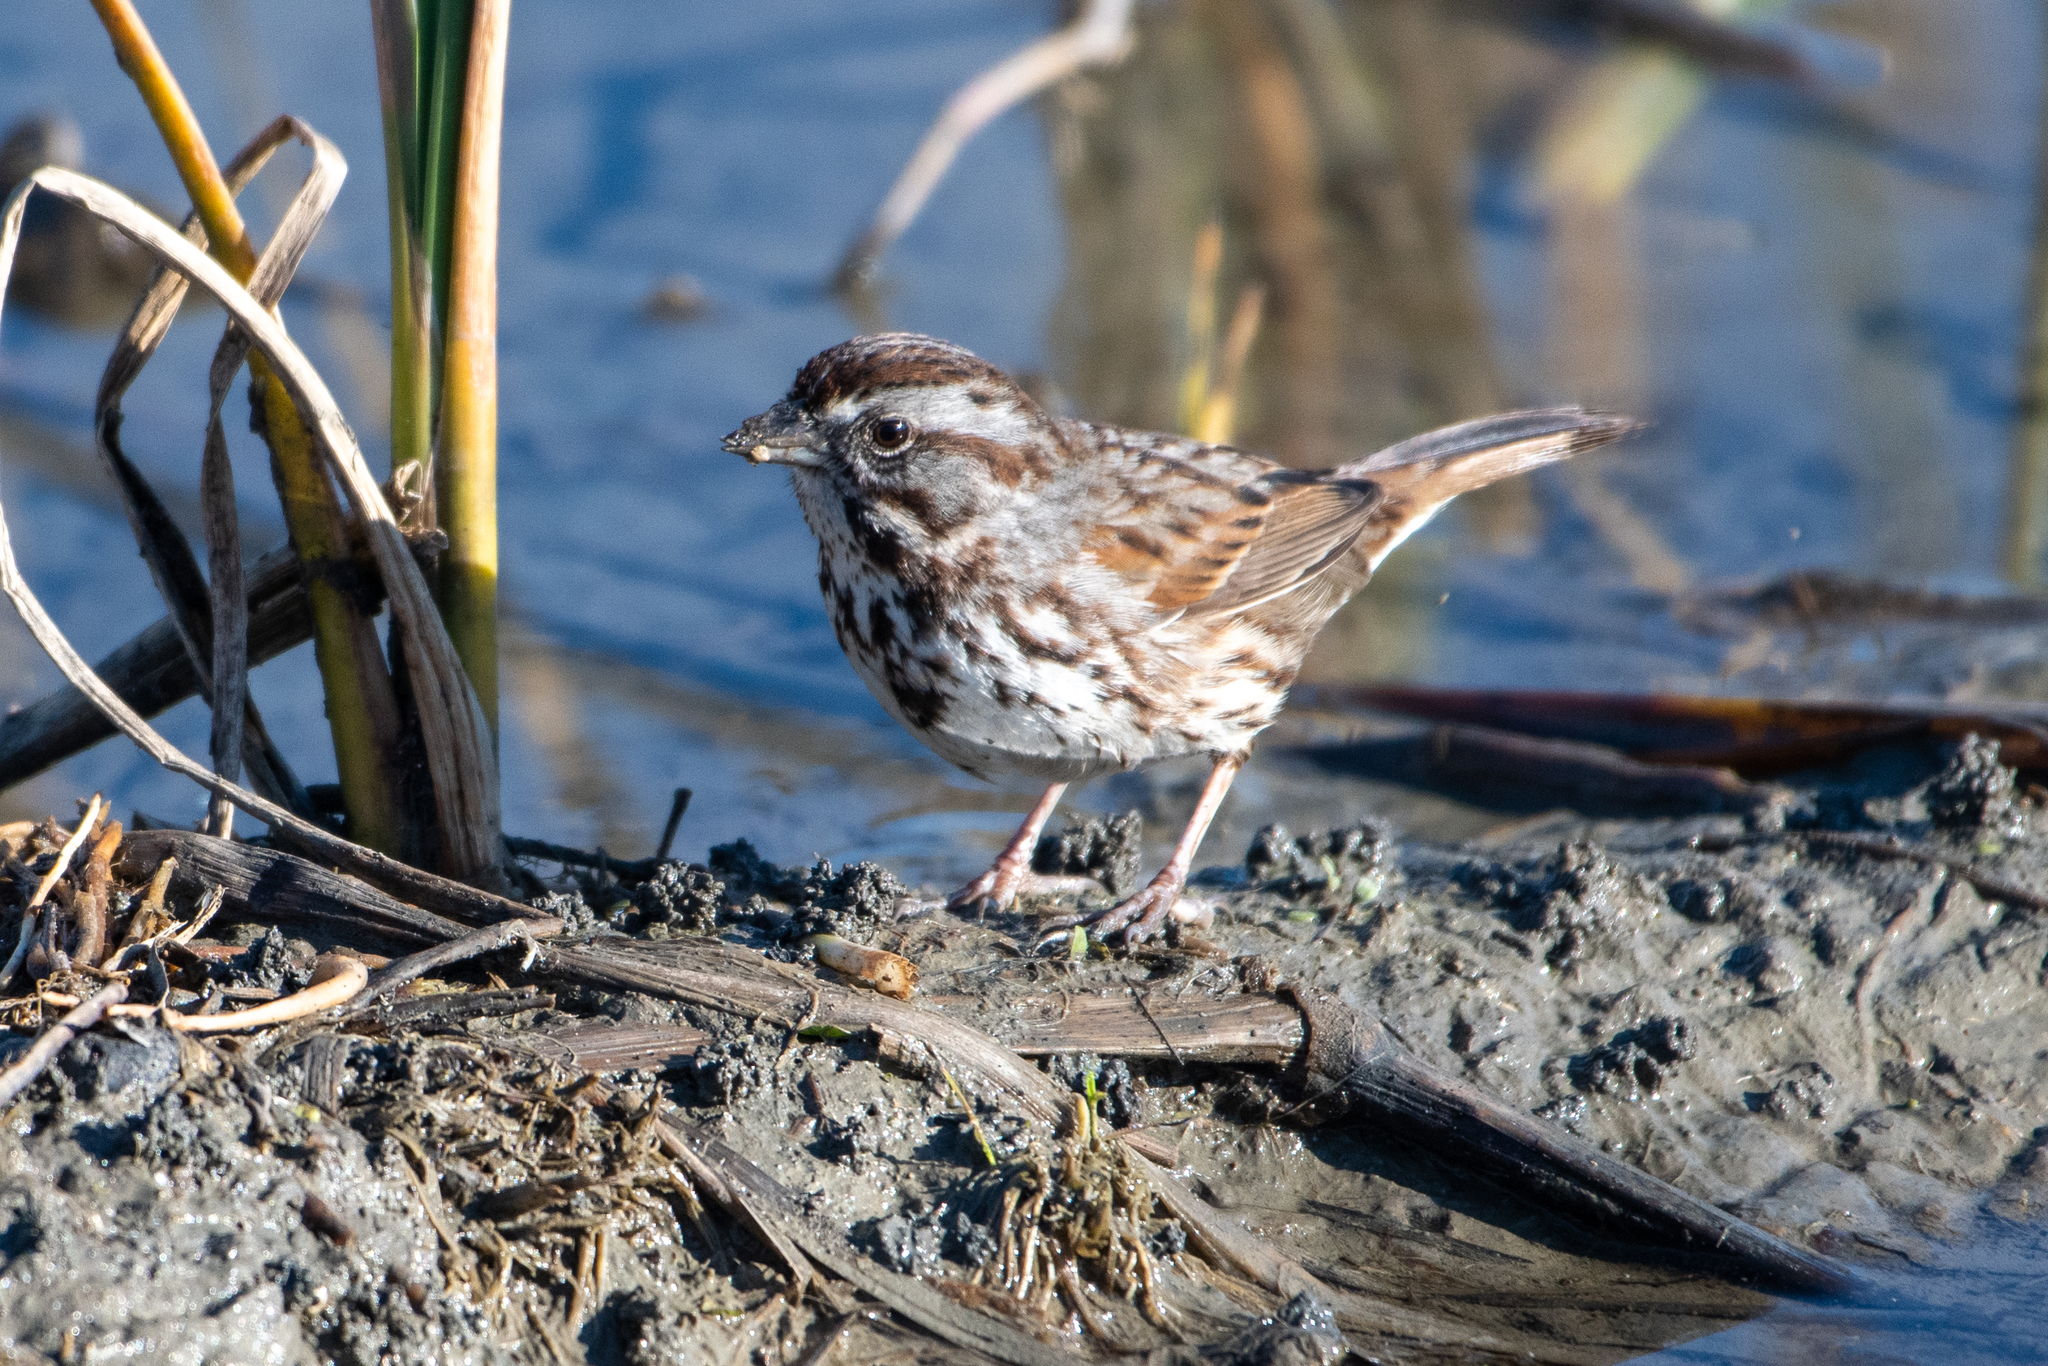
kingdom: Animalia
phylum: Chordata
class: Aves
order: Passeriformes
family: Passerellidae
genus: Melospiza
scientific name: Melospiza melodia
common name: Song sparrow
